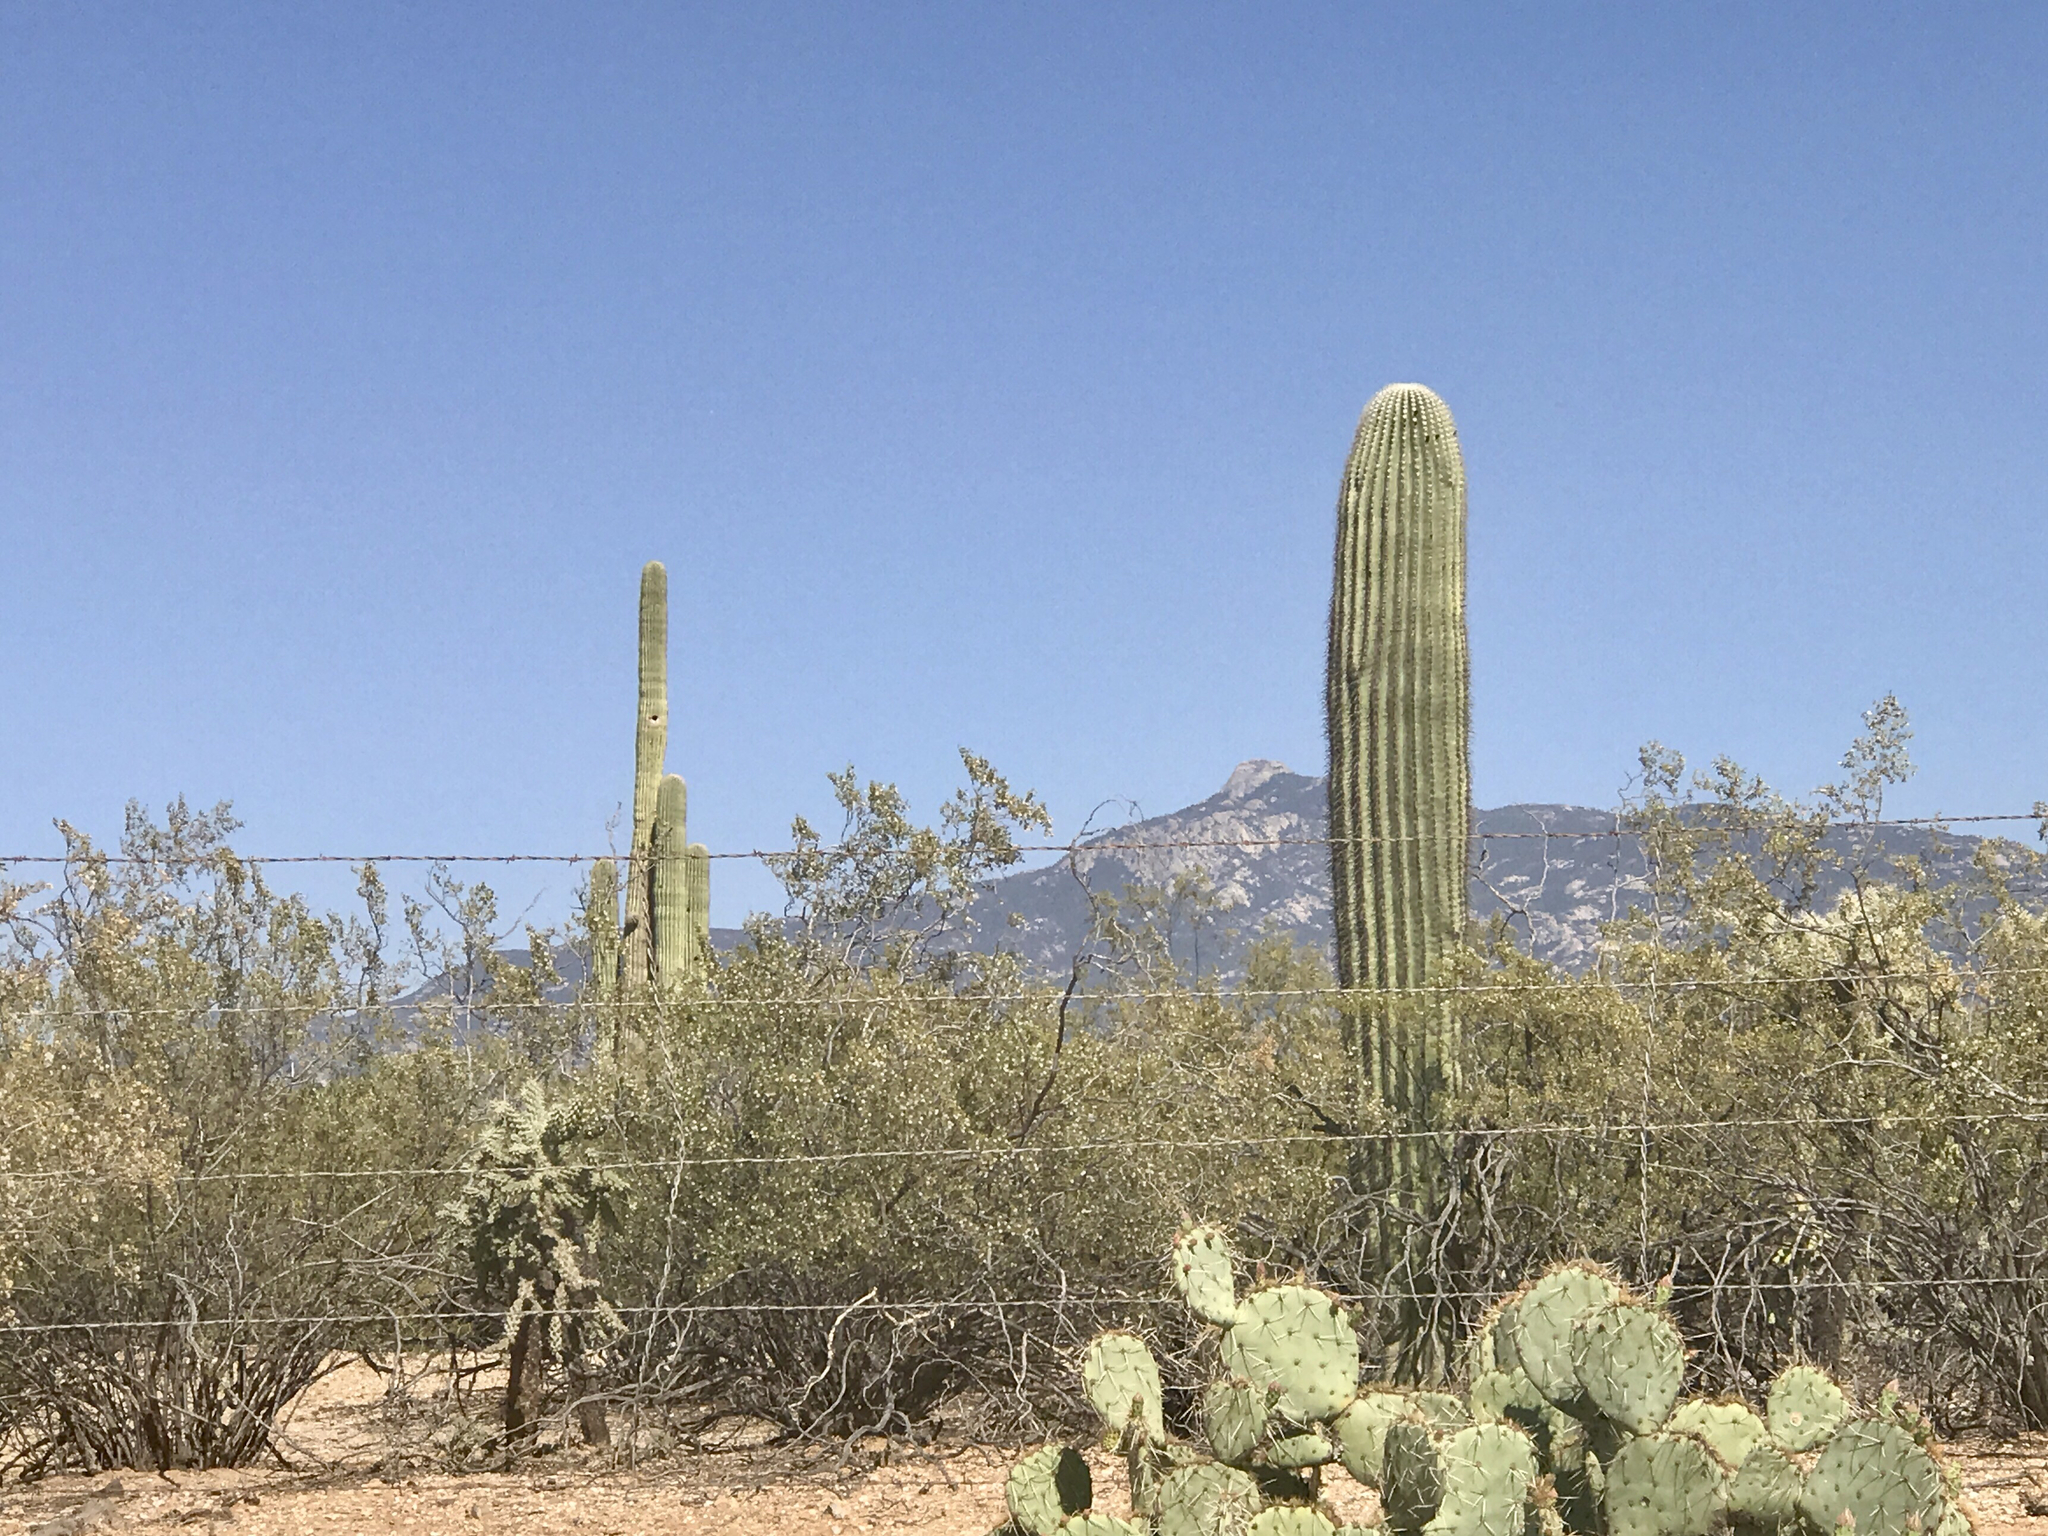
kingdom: Plantae
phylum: Tracheophyta
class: Magnoliopsida
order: Caryophyllales
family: Cactaceae
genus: Carnegiea
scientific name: Carnegiea gigantea
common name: Saguaro
